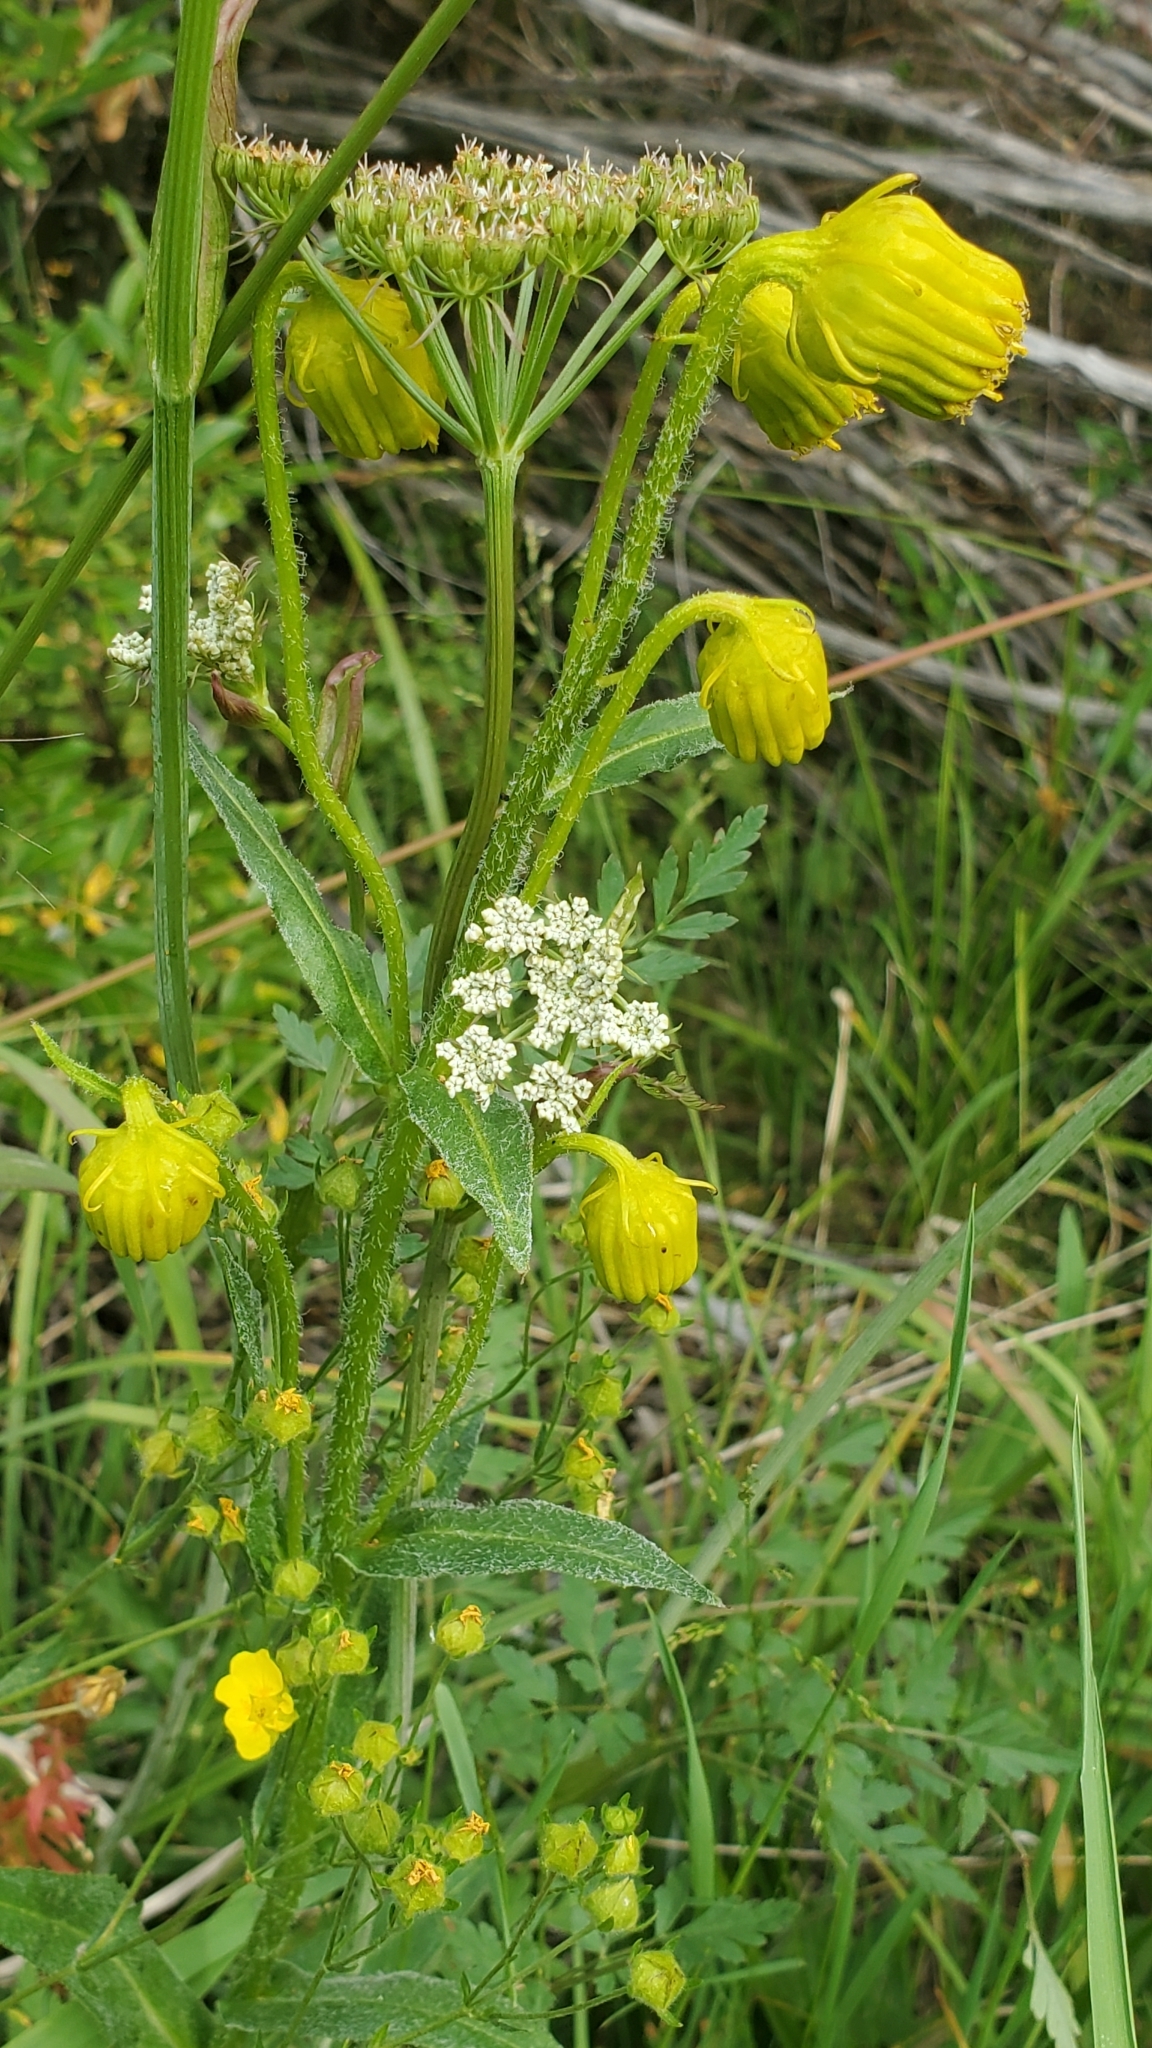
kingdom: Plantae
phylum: Tracheophyta
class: Magnoliopsida
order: Asterales
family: Asteraceae
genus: Senecio
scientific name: Senecio bigelovii
